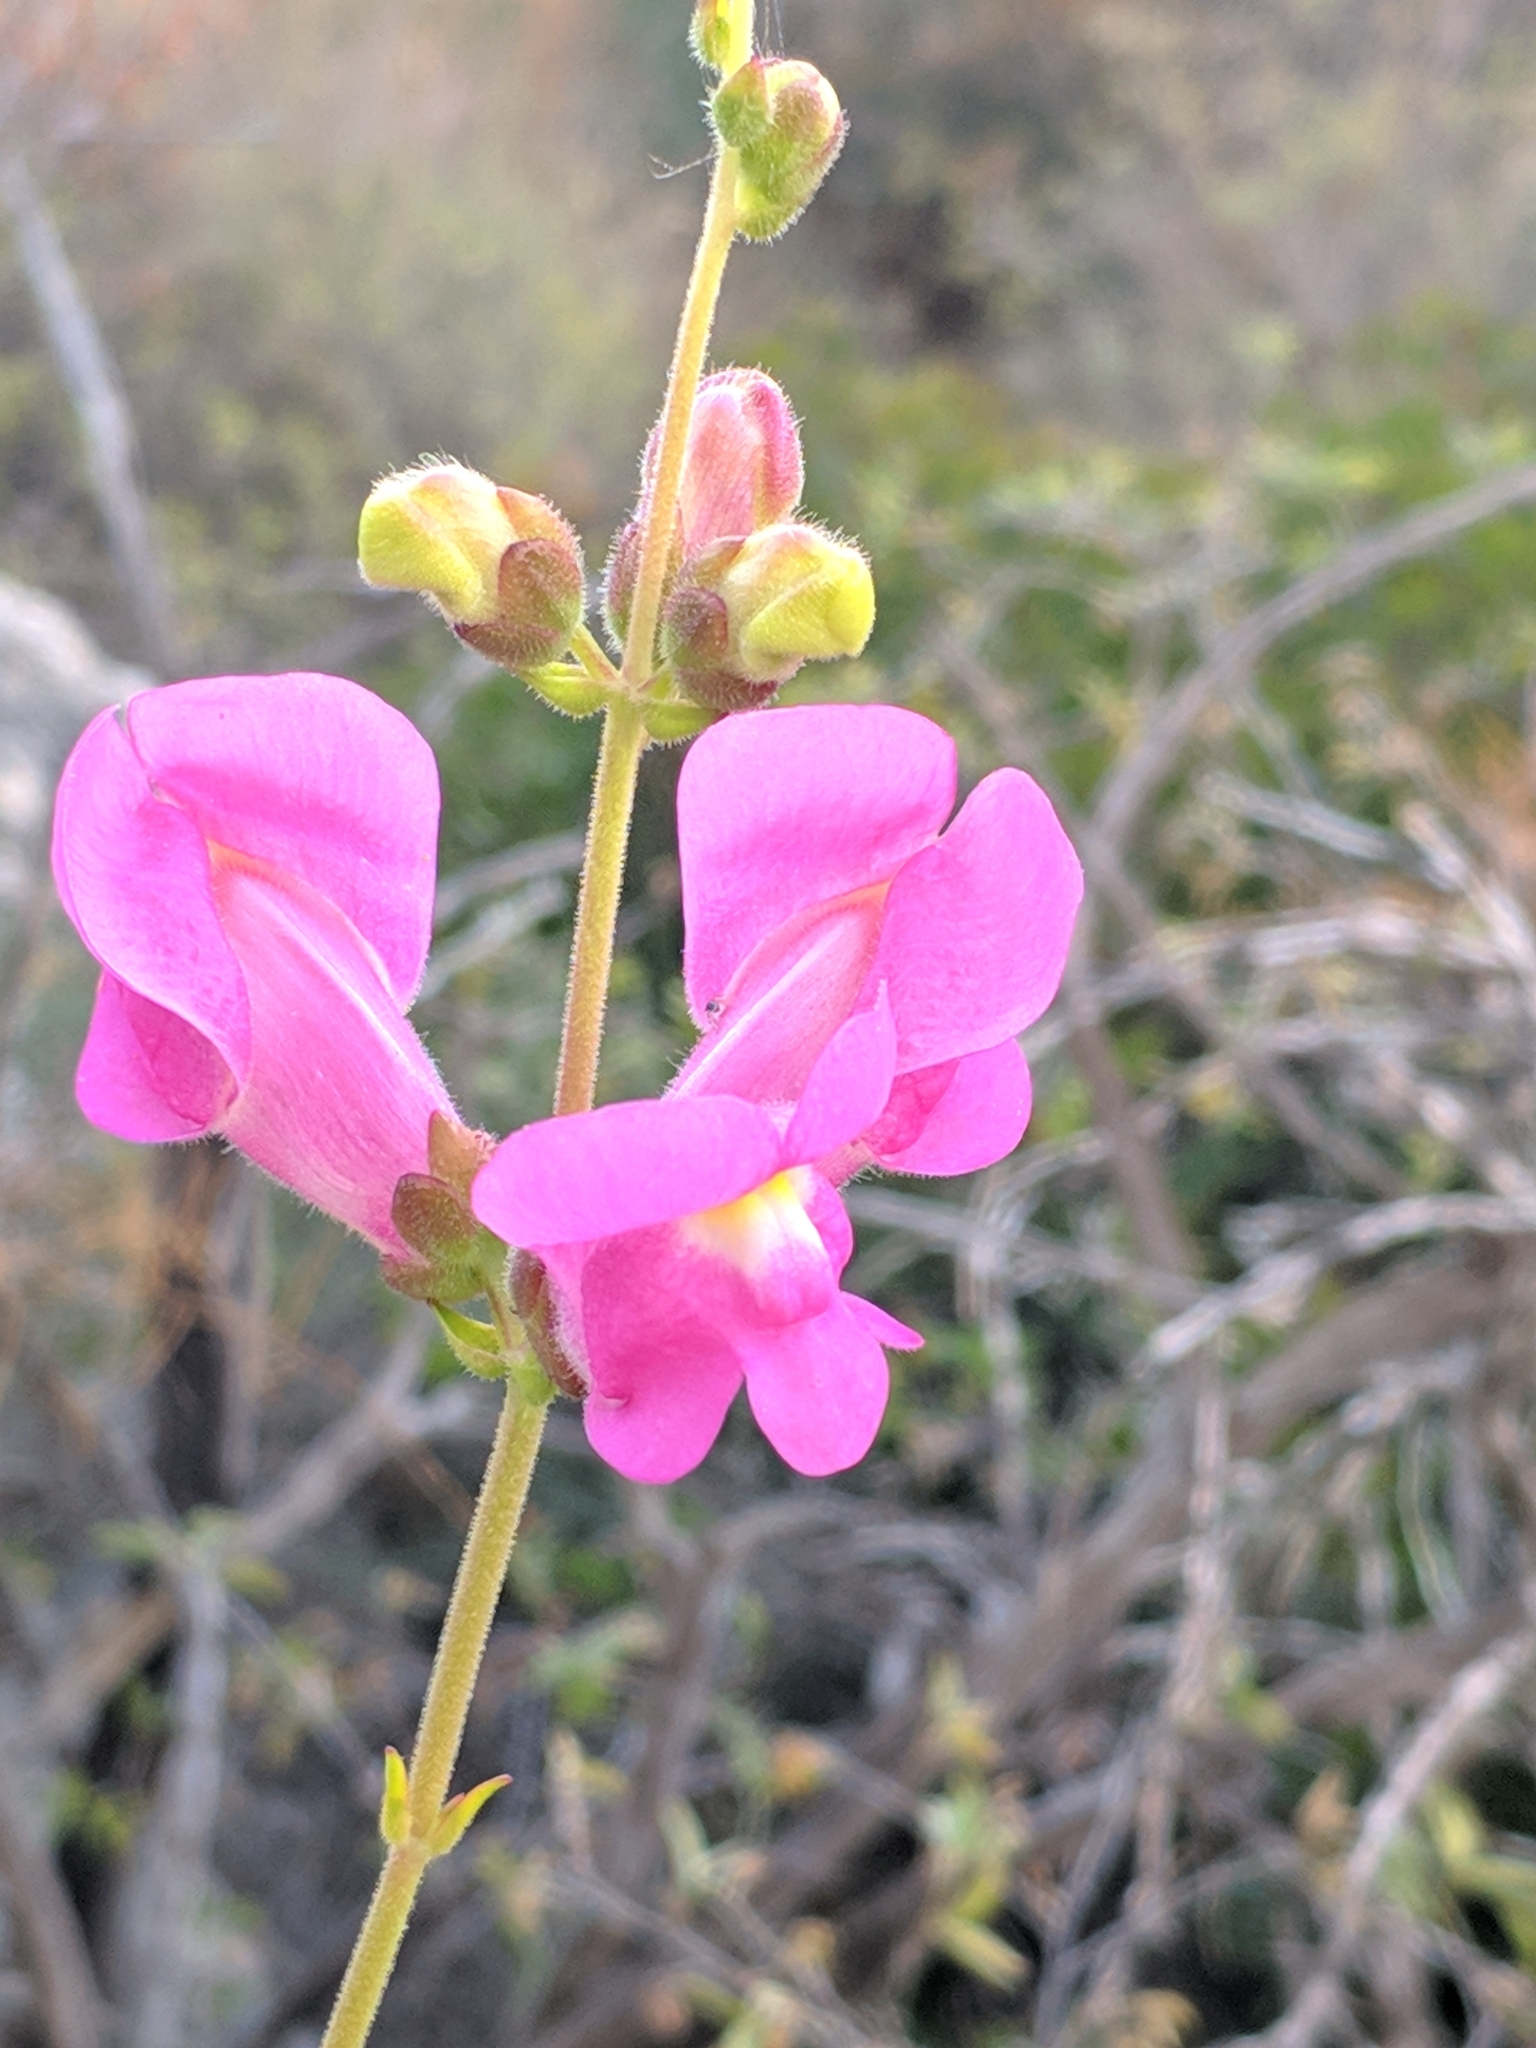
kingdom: Plantae
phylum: Tracheophyta
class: Magnoliopsida
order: Lamiales
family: Plantaginaceae
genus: Antirrhinum
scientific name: Antirrhinum tortuosum
